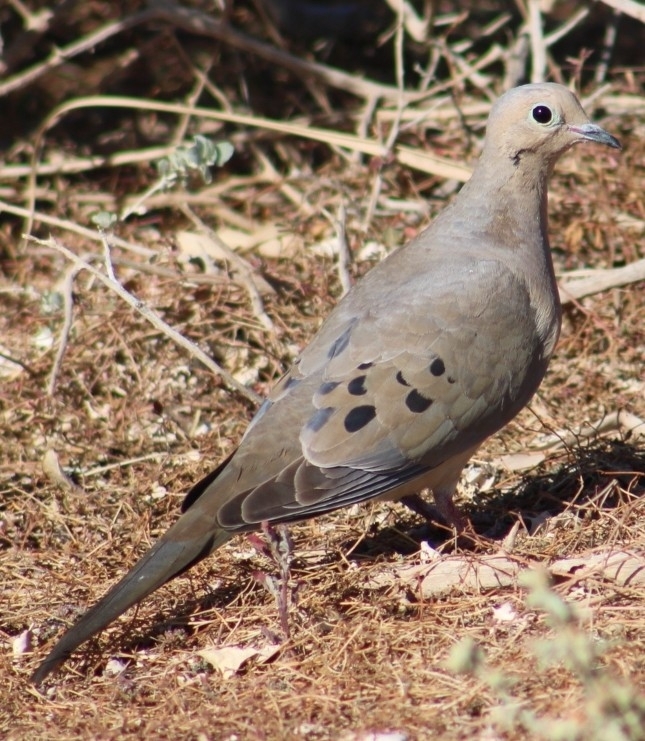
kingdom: Animalia
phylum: Chordata
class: Aves
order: Columbiformes
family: Columbidae
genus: Zenaida
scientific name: Zenaida macroura
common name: Mourning dove
